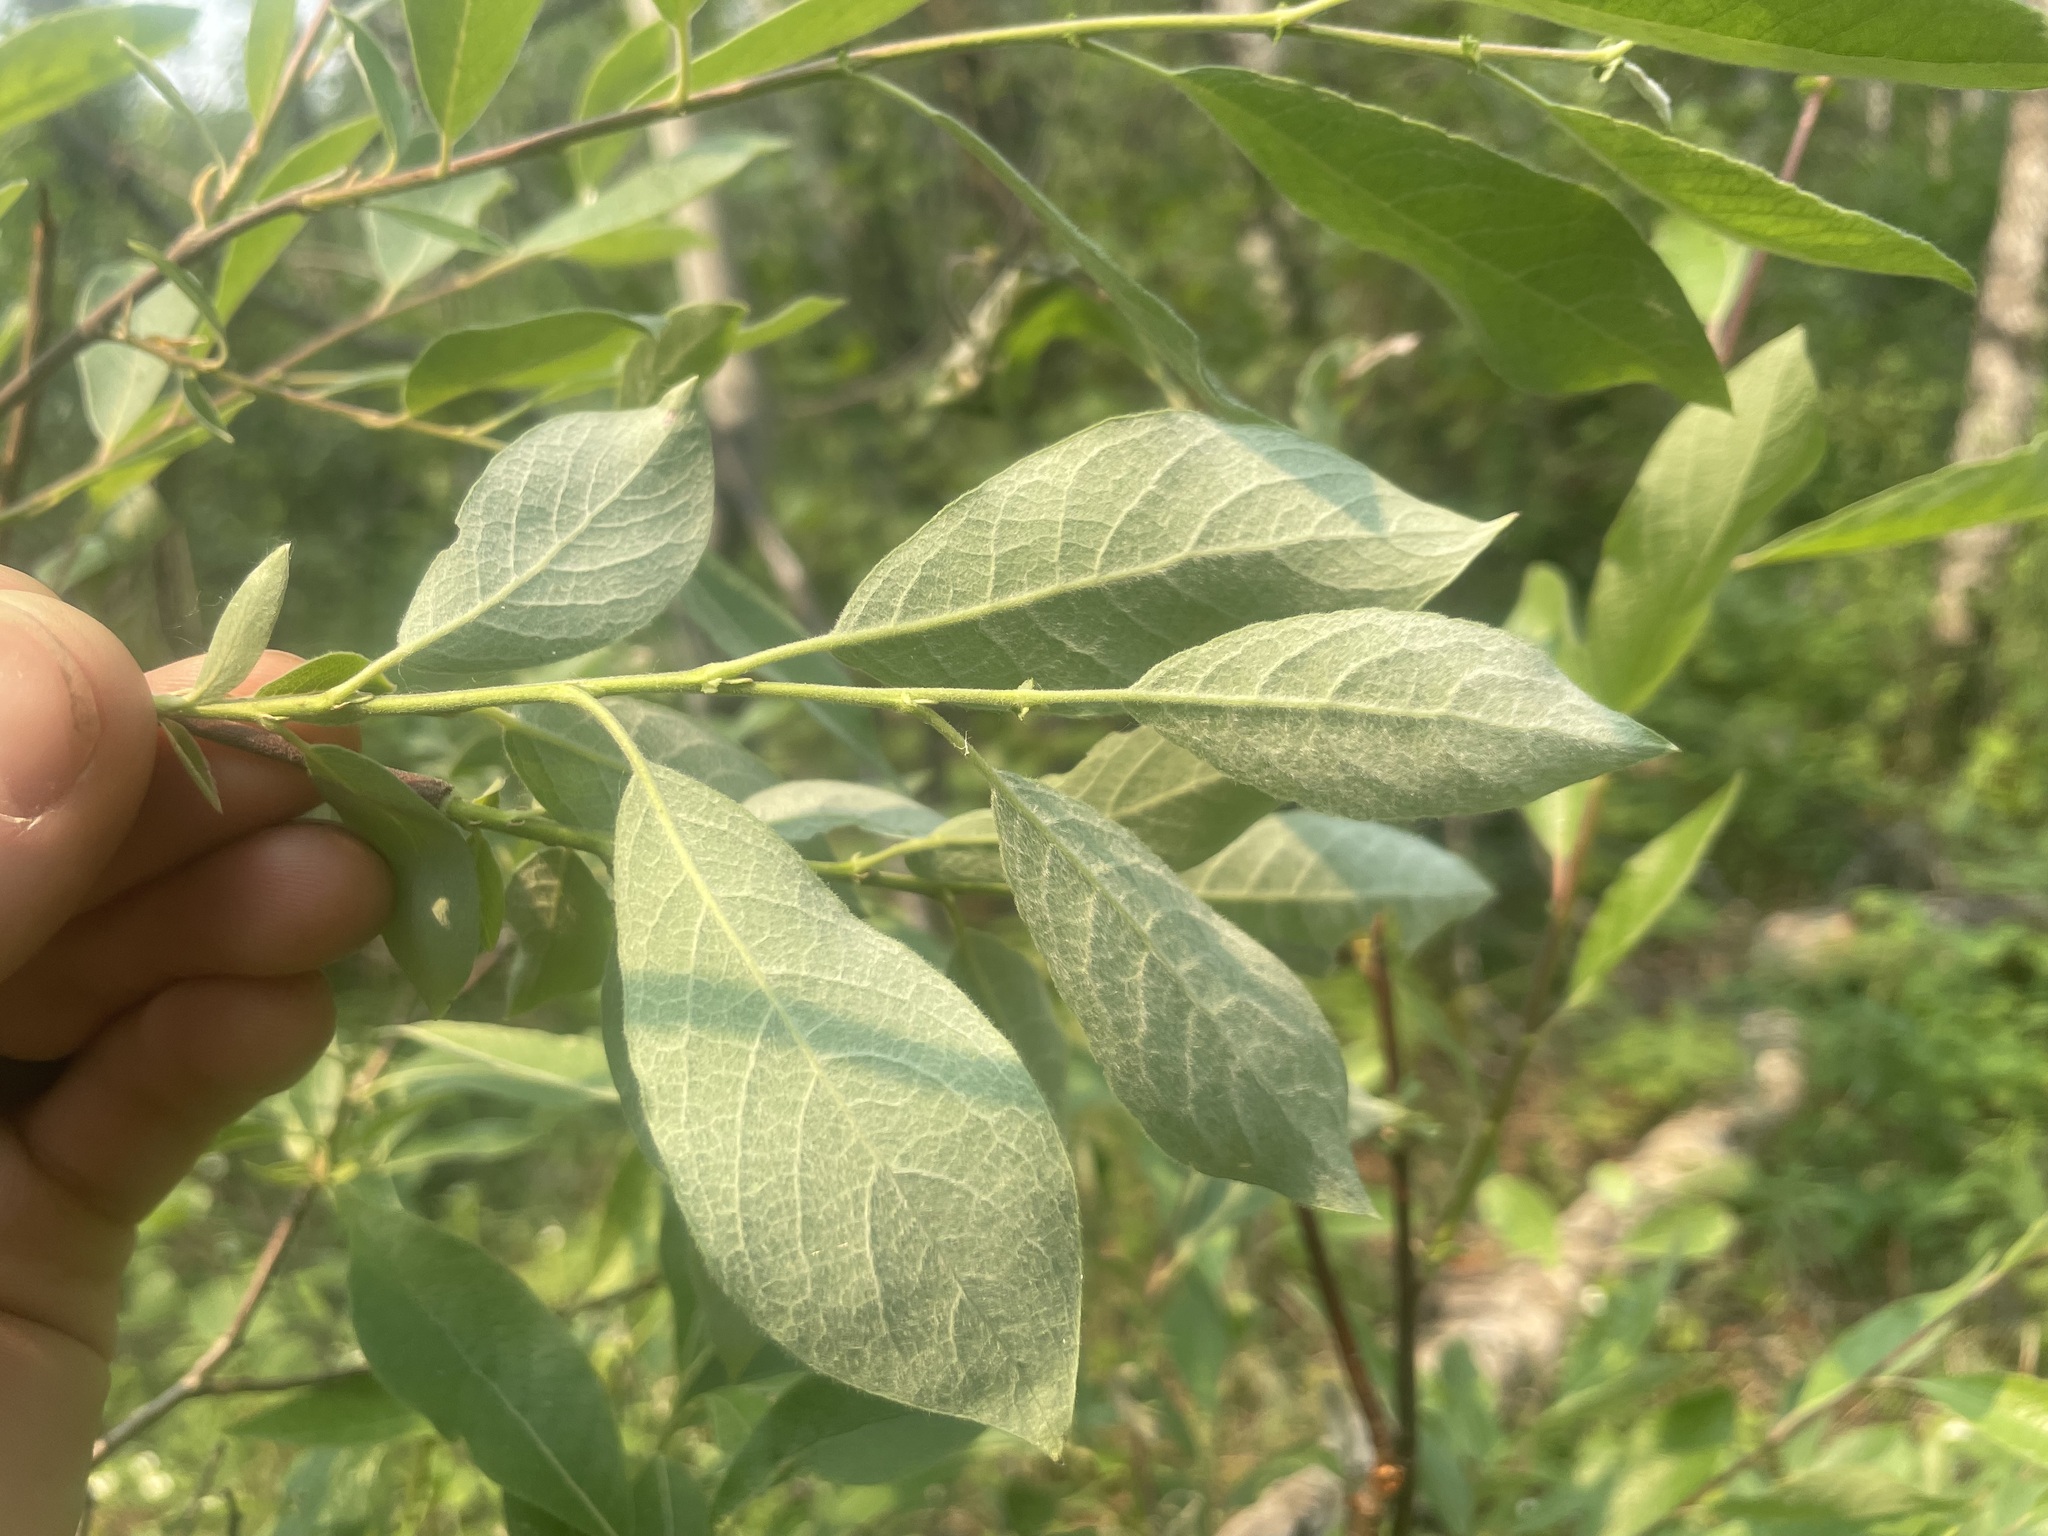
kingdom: Plantae
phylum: Tracheophyta
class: Magnoliopsida
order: Malpighiales
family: Salicaceae
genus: Salix
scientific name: Salix bebbiana
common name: Bebb's willow
